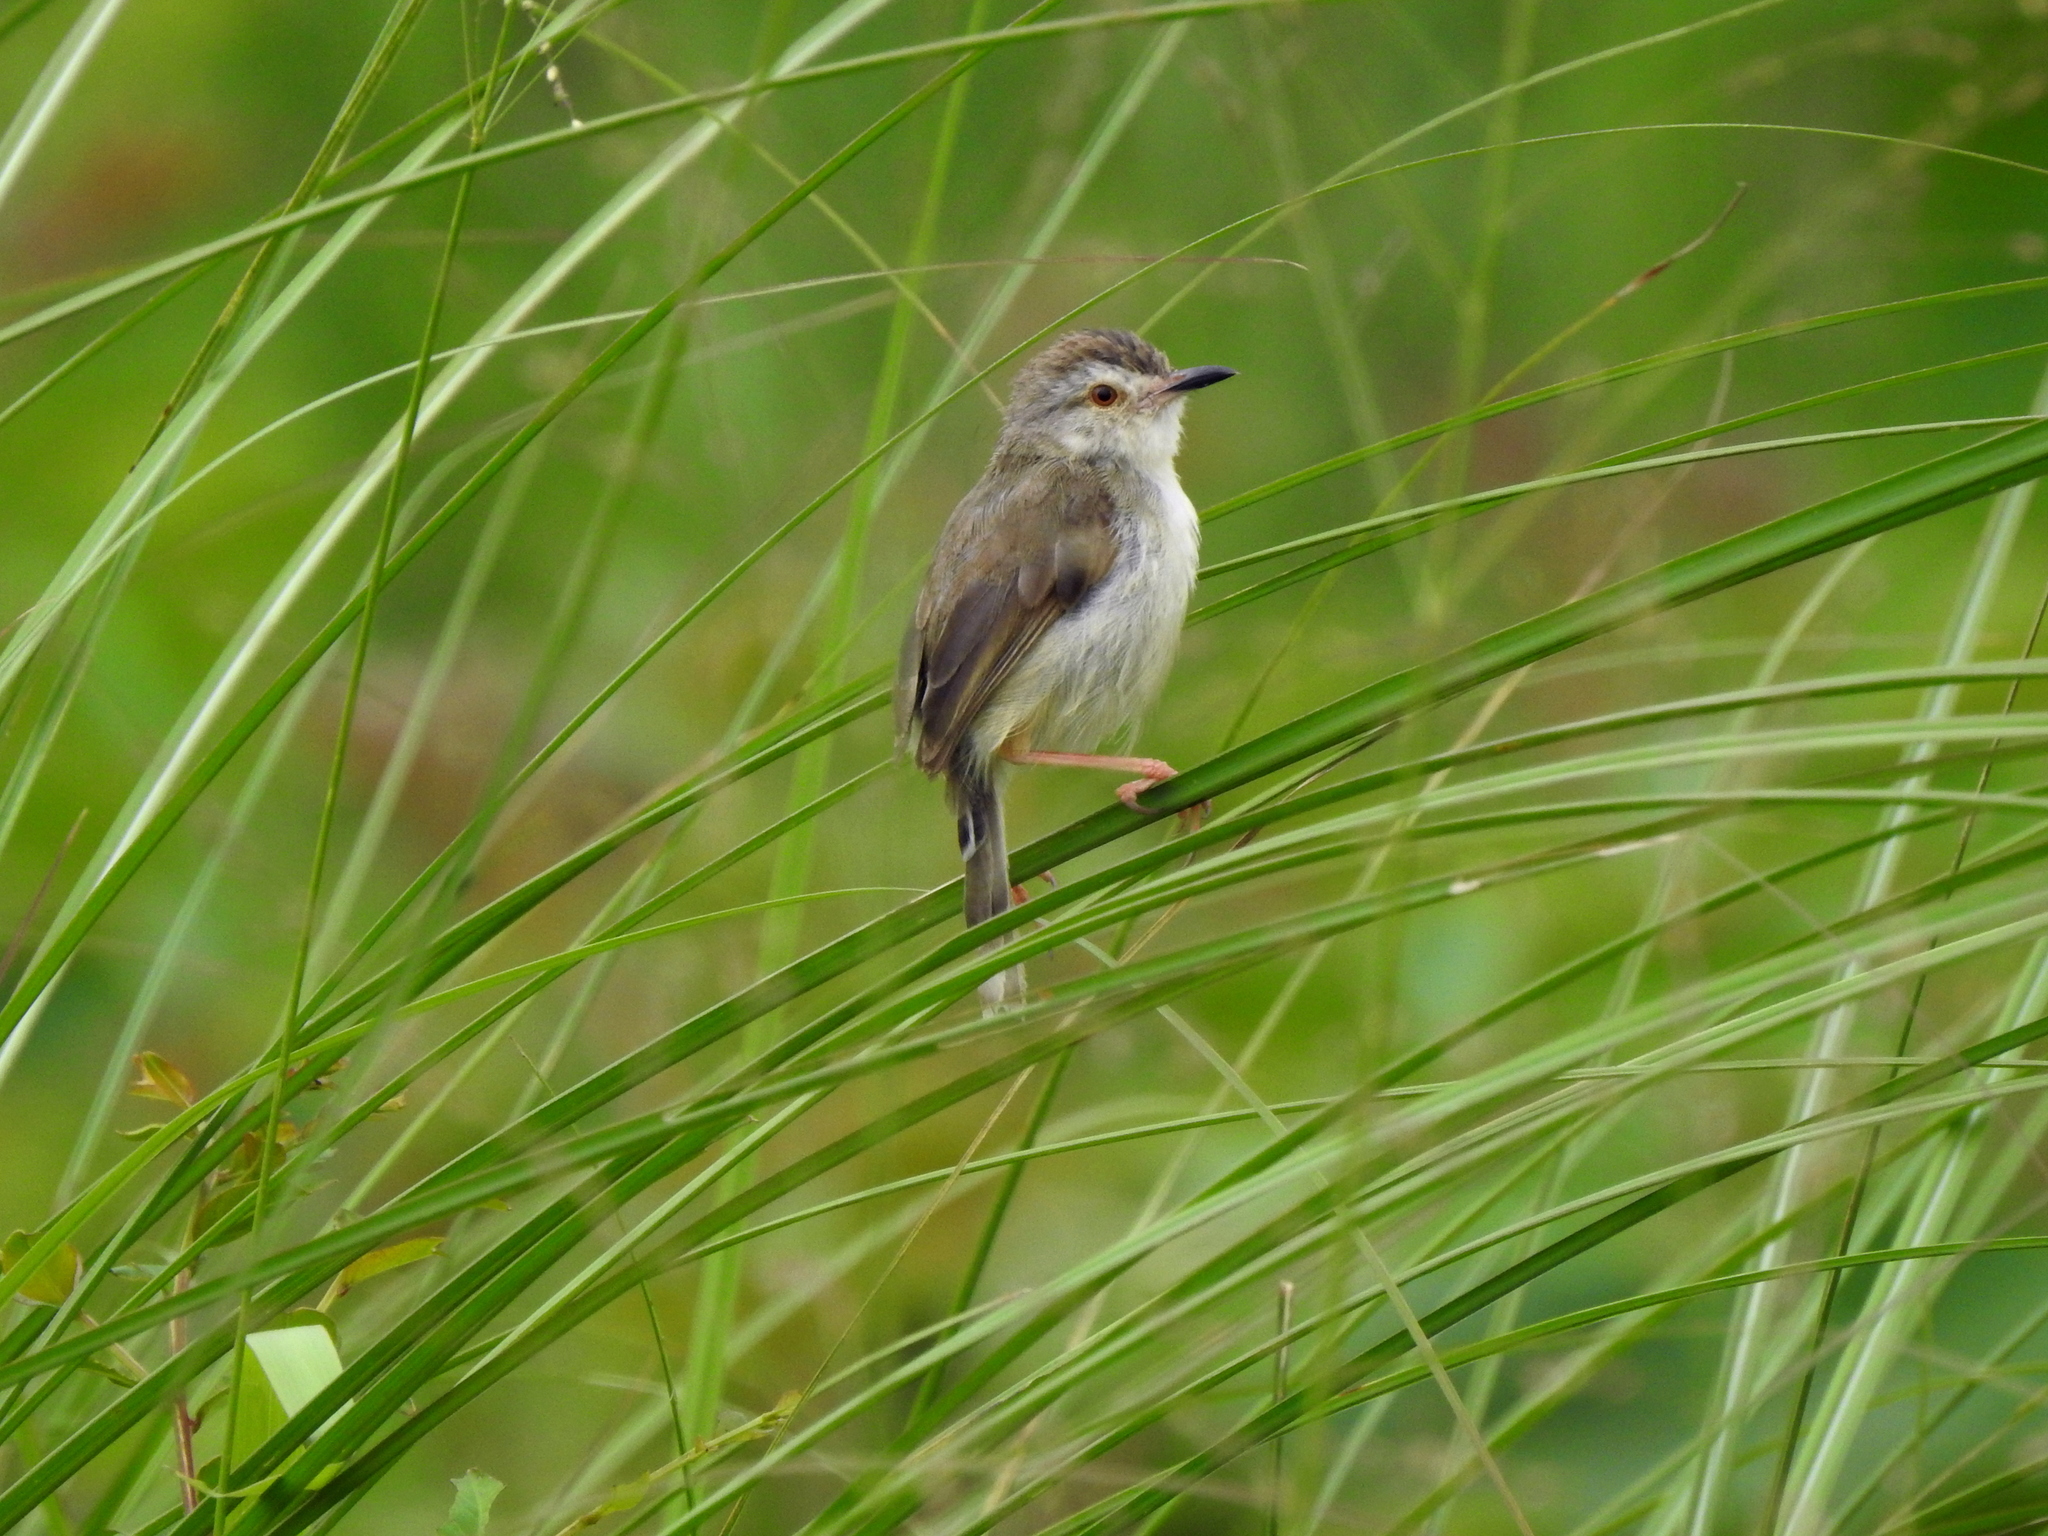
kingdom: Animalia
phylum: Chordata
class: Aves
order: Passeriformes
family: Cisticolidae
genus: Prinia
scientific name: Prinia inornata
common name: Plain prinia
